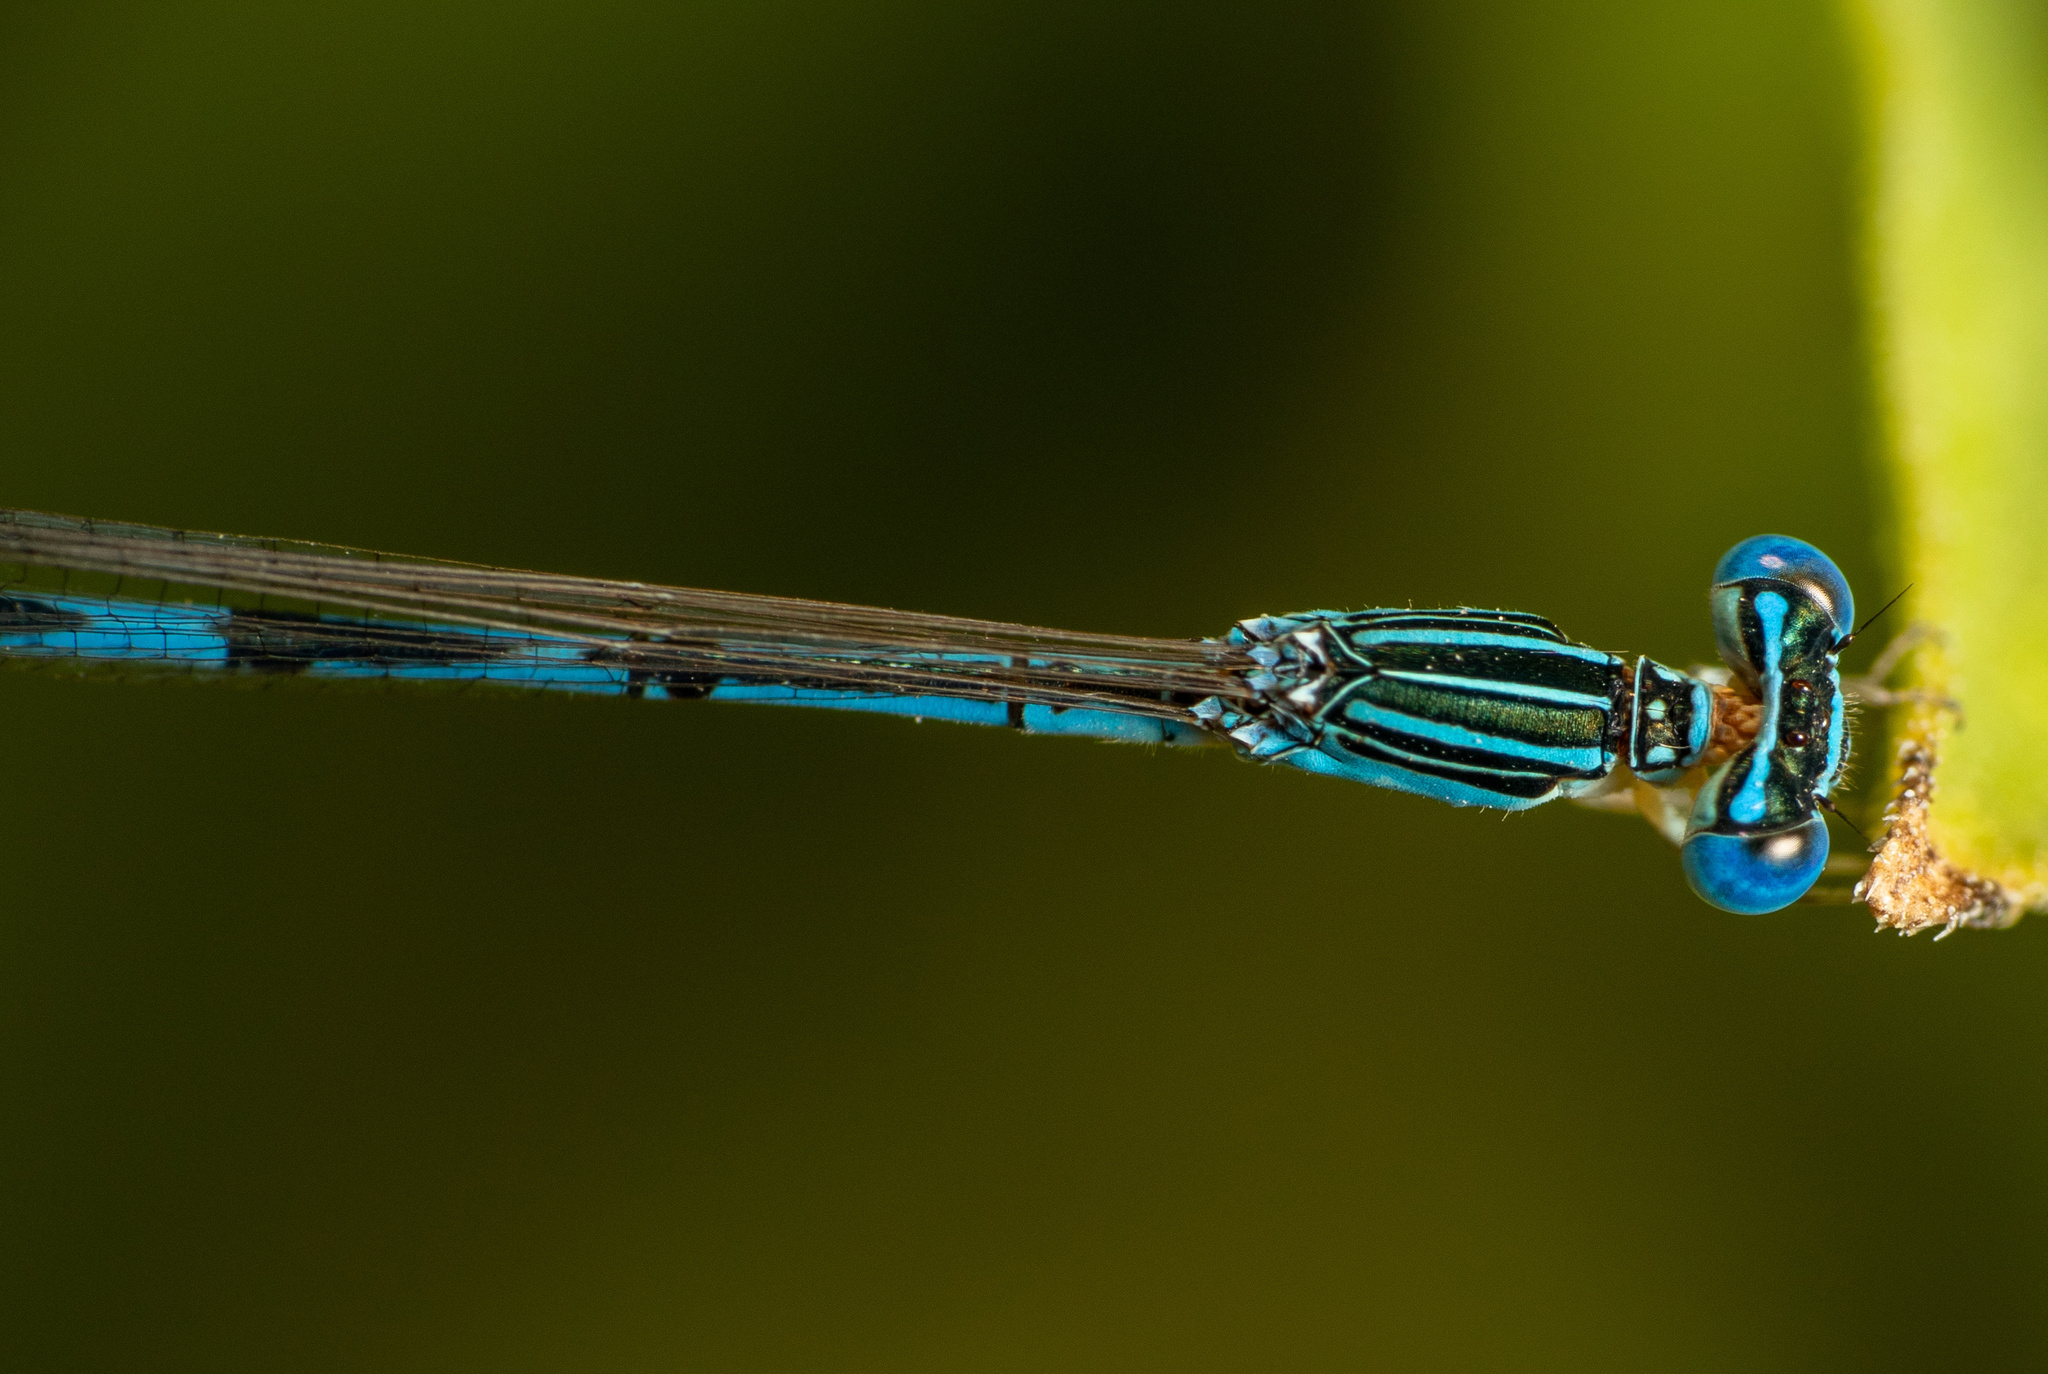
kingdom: Animalia
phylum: Arthropoda
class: Insecta
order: Odonata
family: Coenagrionidae
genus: Enallagma
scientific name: Enallagma basidens
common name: Double-striped bluet
